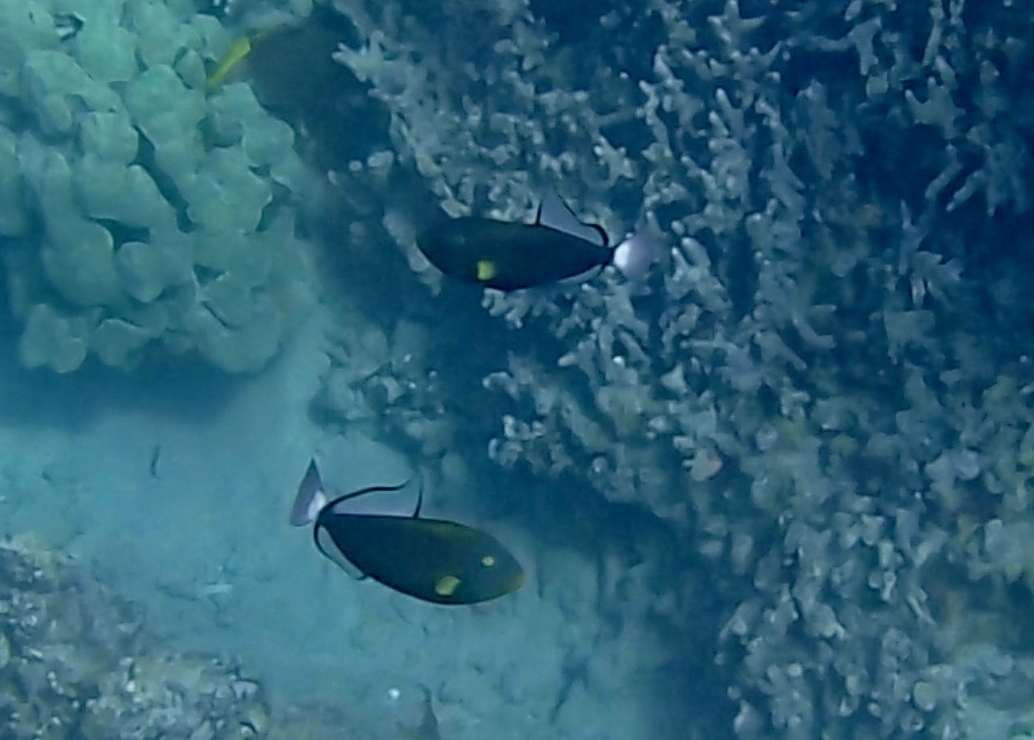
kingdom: Animalia
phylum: Chordata
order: Tetraodontiformes
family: Balistidae
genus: Melichthys
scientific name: Melichthys vidua
